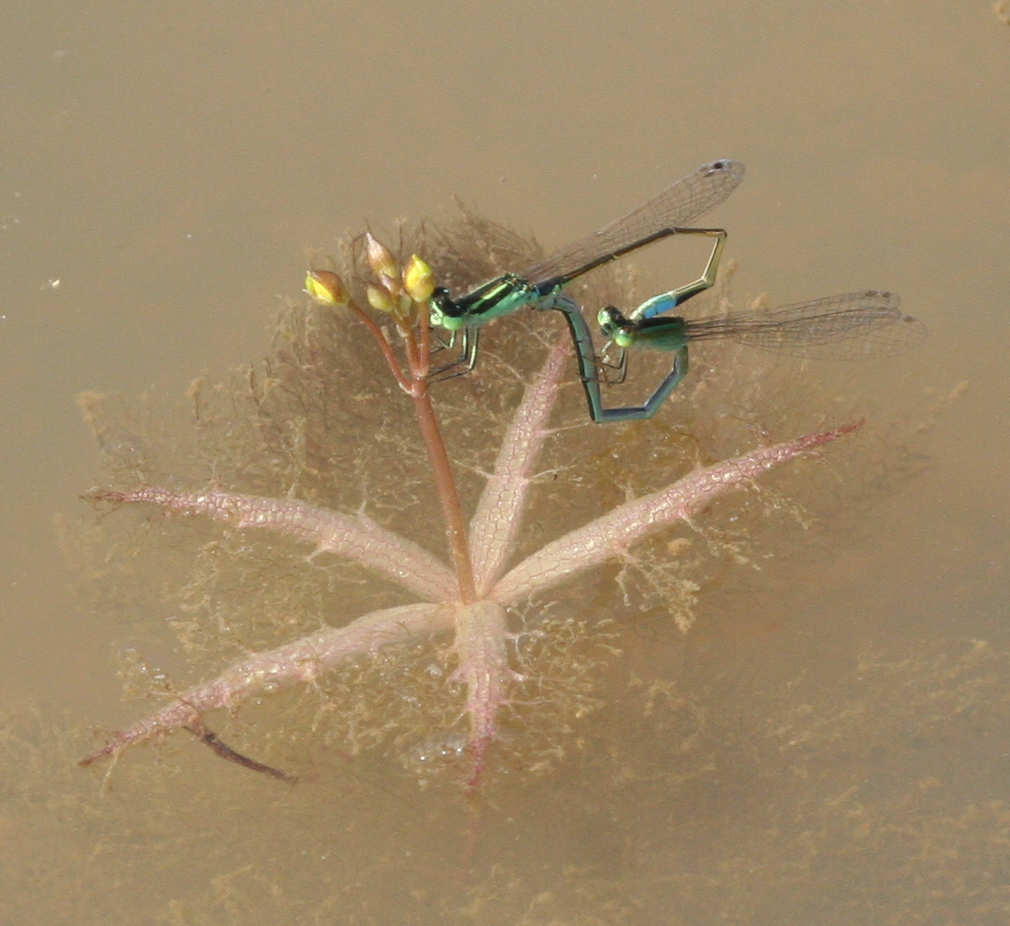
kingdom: Animalia
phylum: Arthropoda
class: Insecta
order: Odonata
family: Coenagrionidae
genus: Ischnura
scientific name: Ischnura senegalensis
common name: Tropical bluetail
